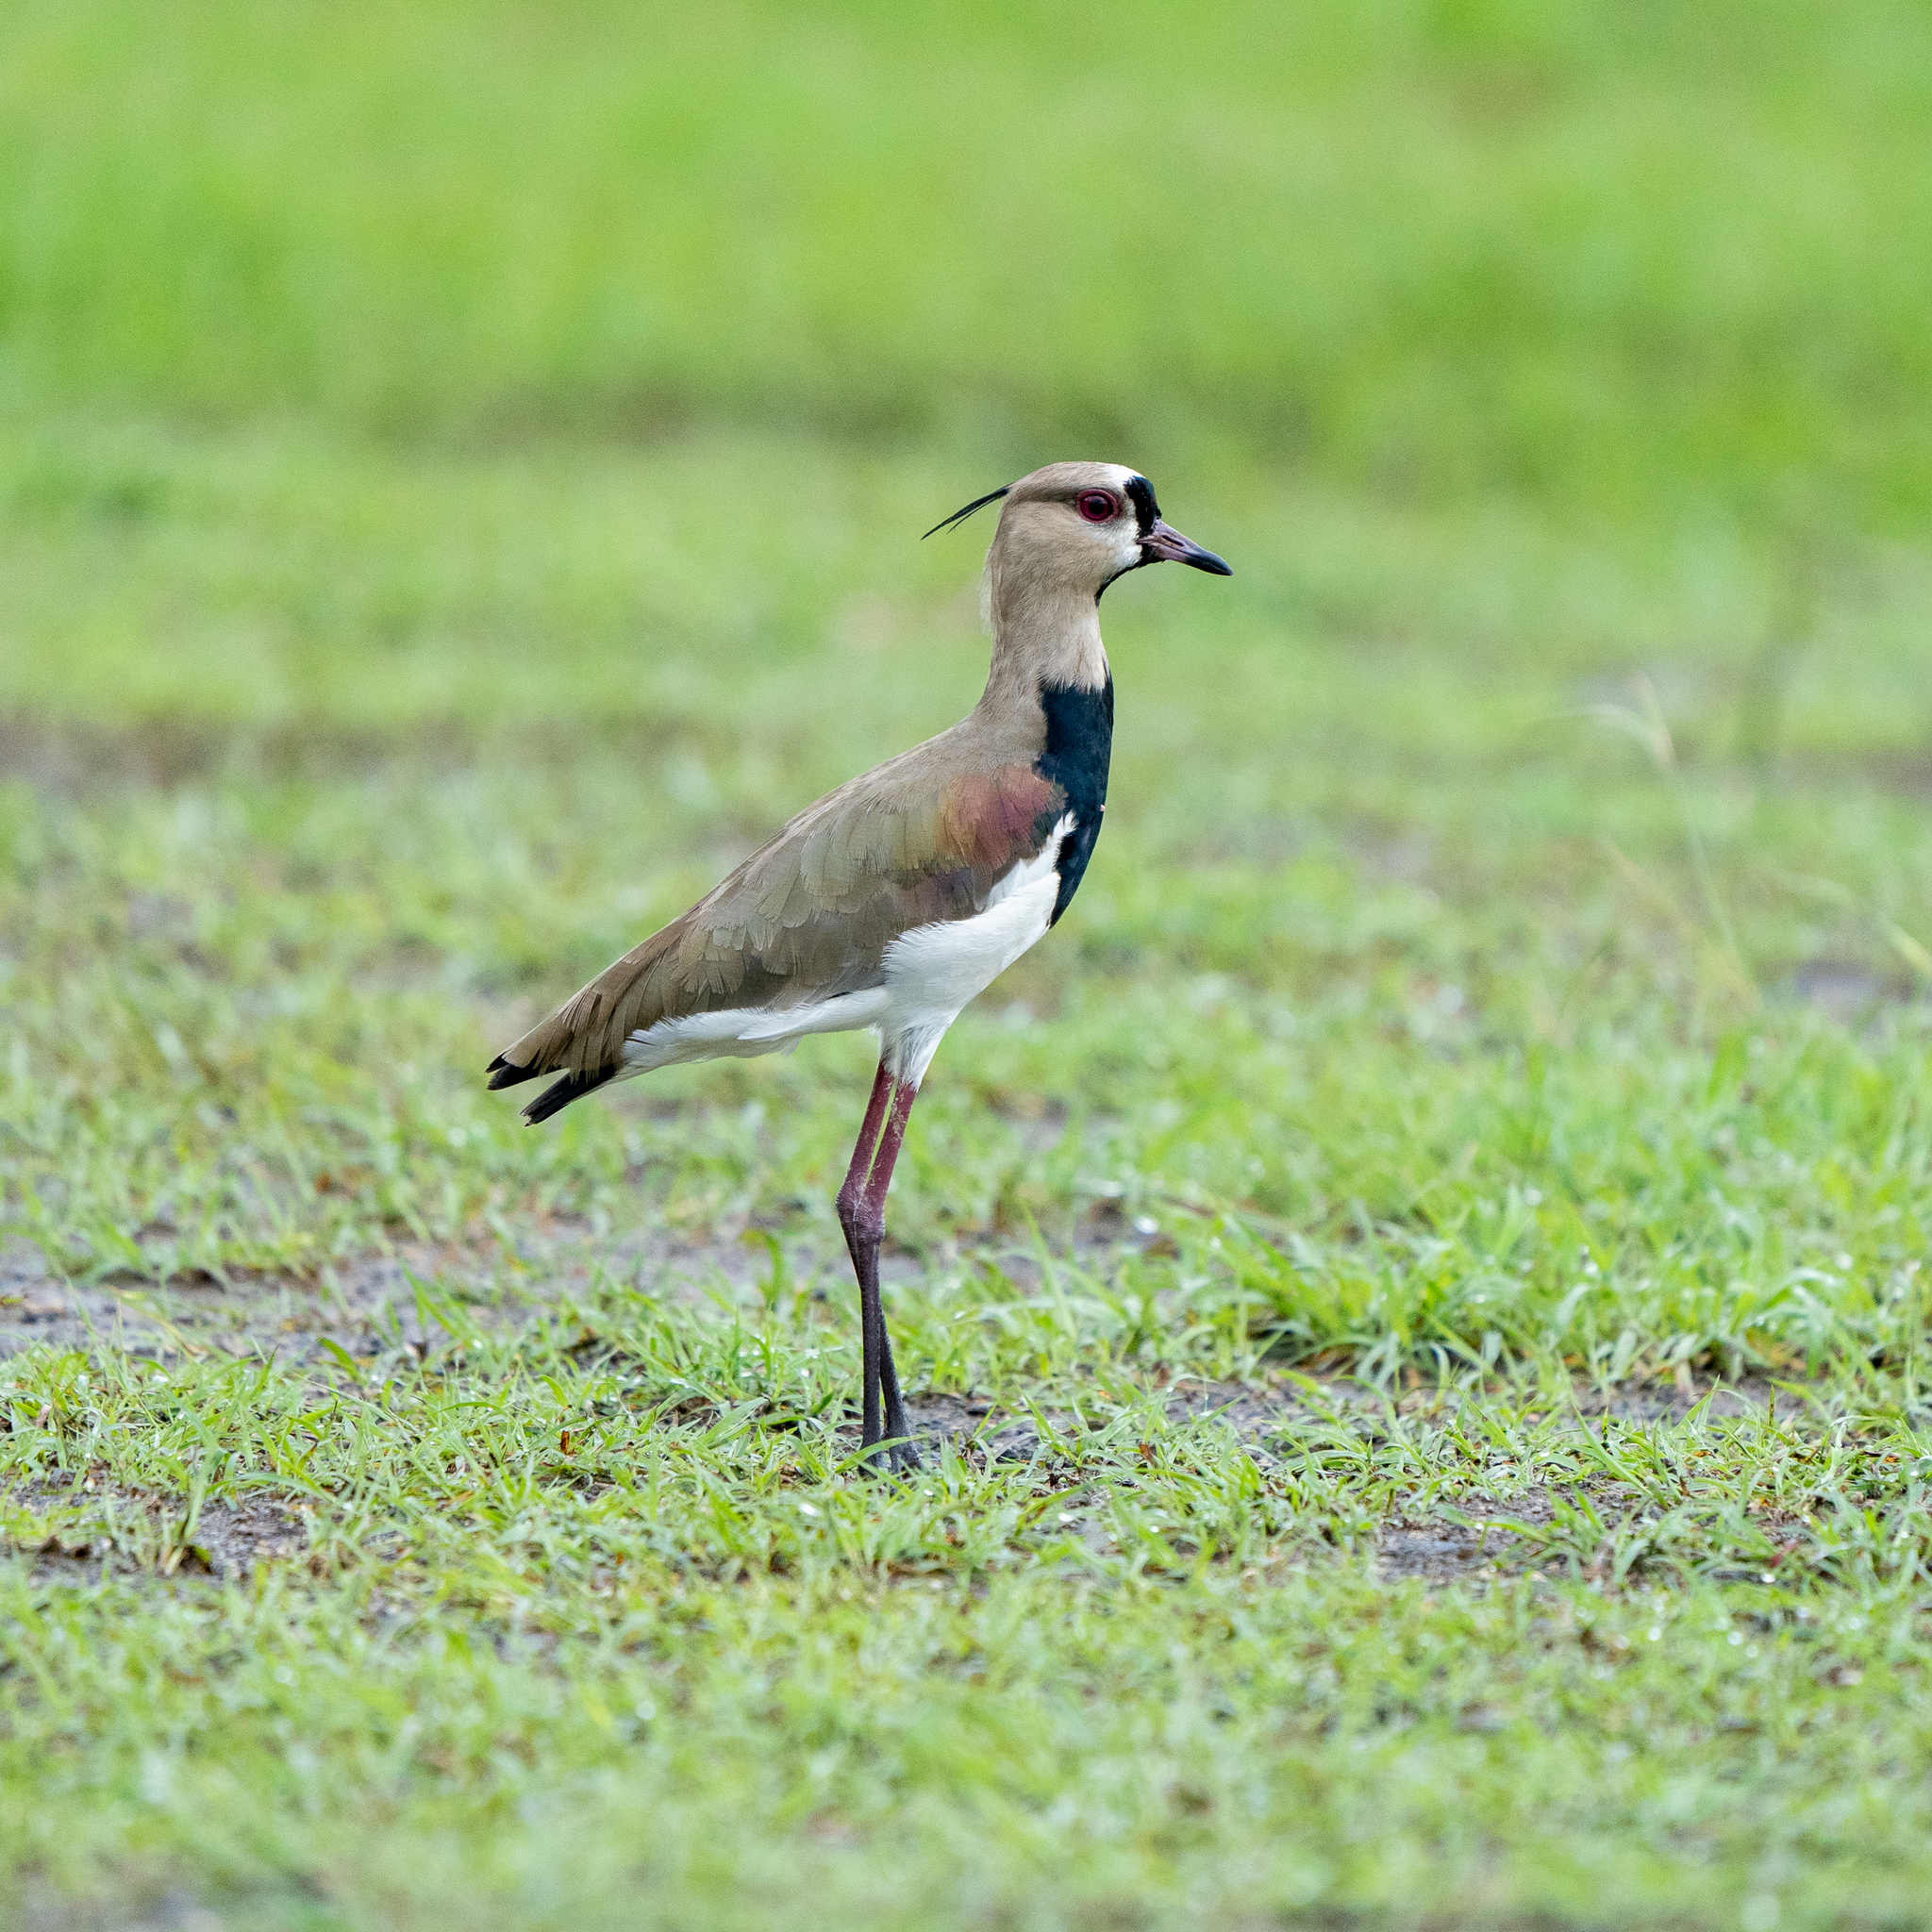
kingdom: Animalia
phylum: Chordata
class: Aves
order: Charadriiformes
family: Charadriidae
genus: Vanellus
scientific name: Vanellus chilensis
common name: Southern lapwing
